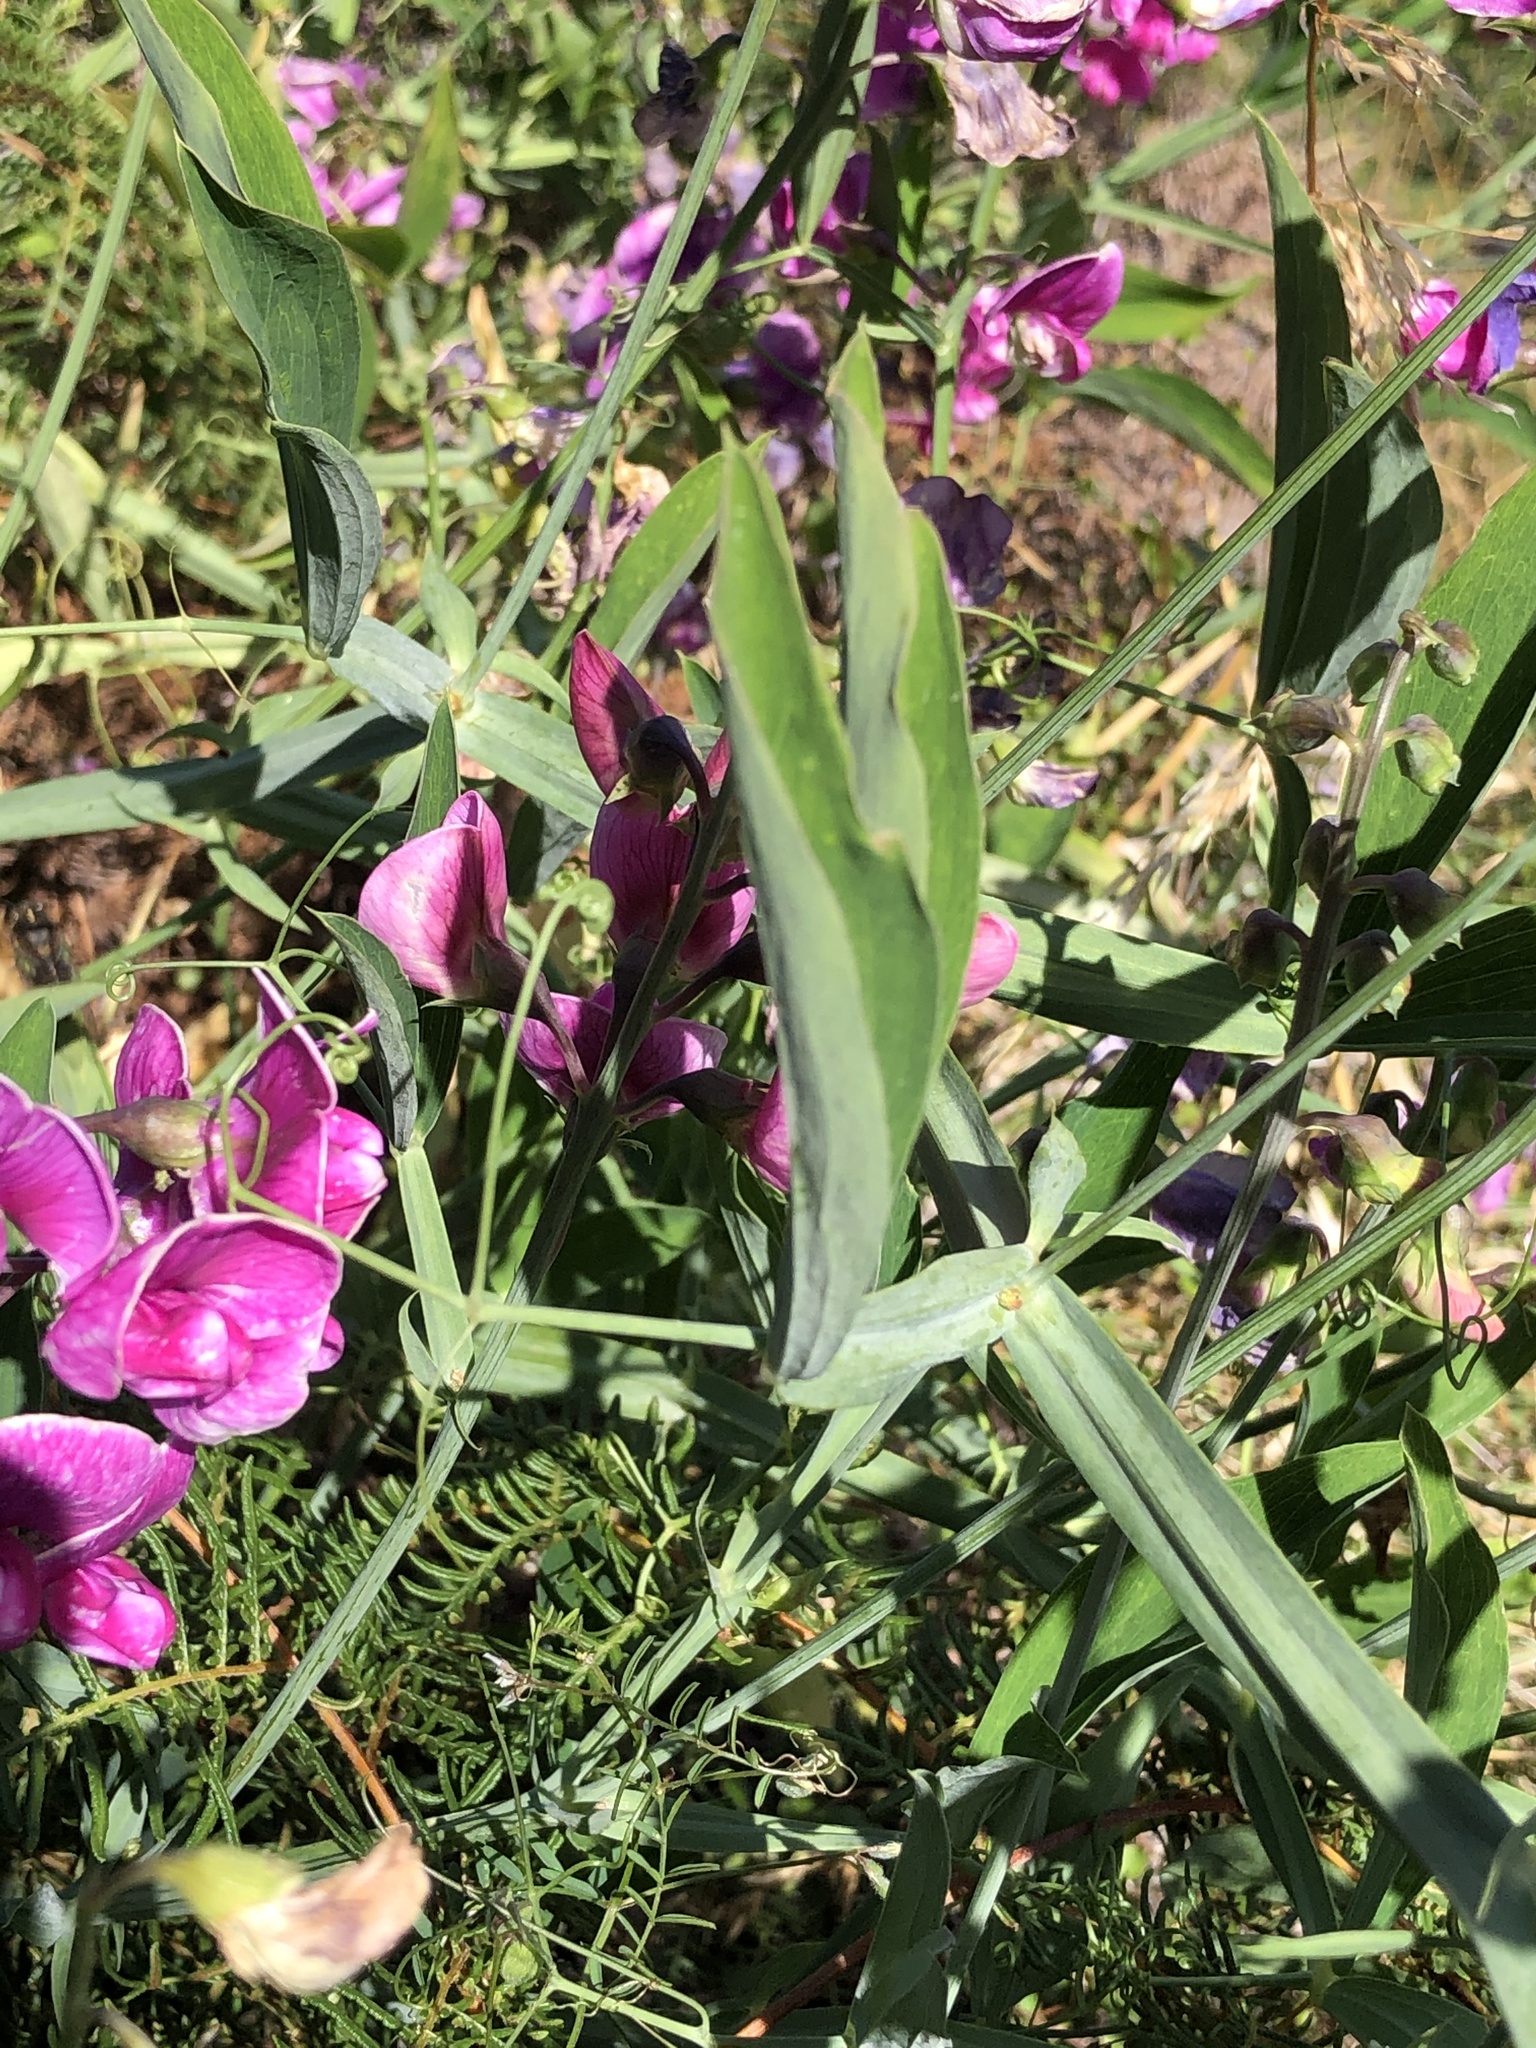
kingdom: Plantae
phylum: Tracheophyta
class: Magnoliopsida
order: Fabales
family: Fabaceae
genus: Lathyrus
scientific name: Lathyrus latifolius
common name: Perennial pea
